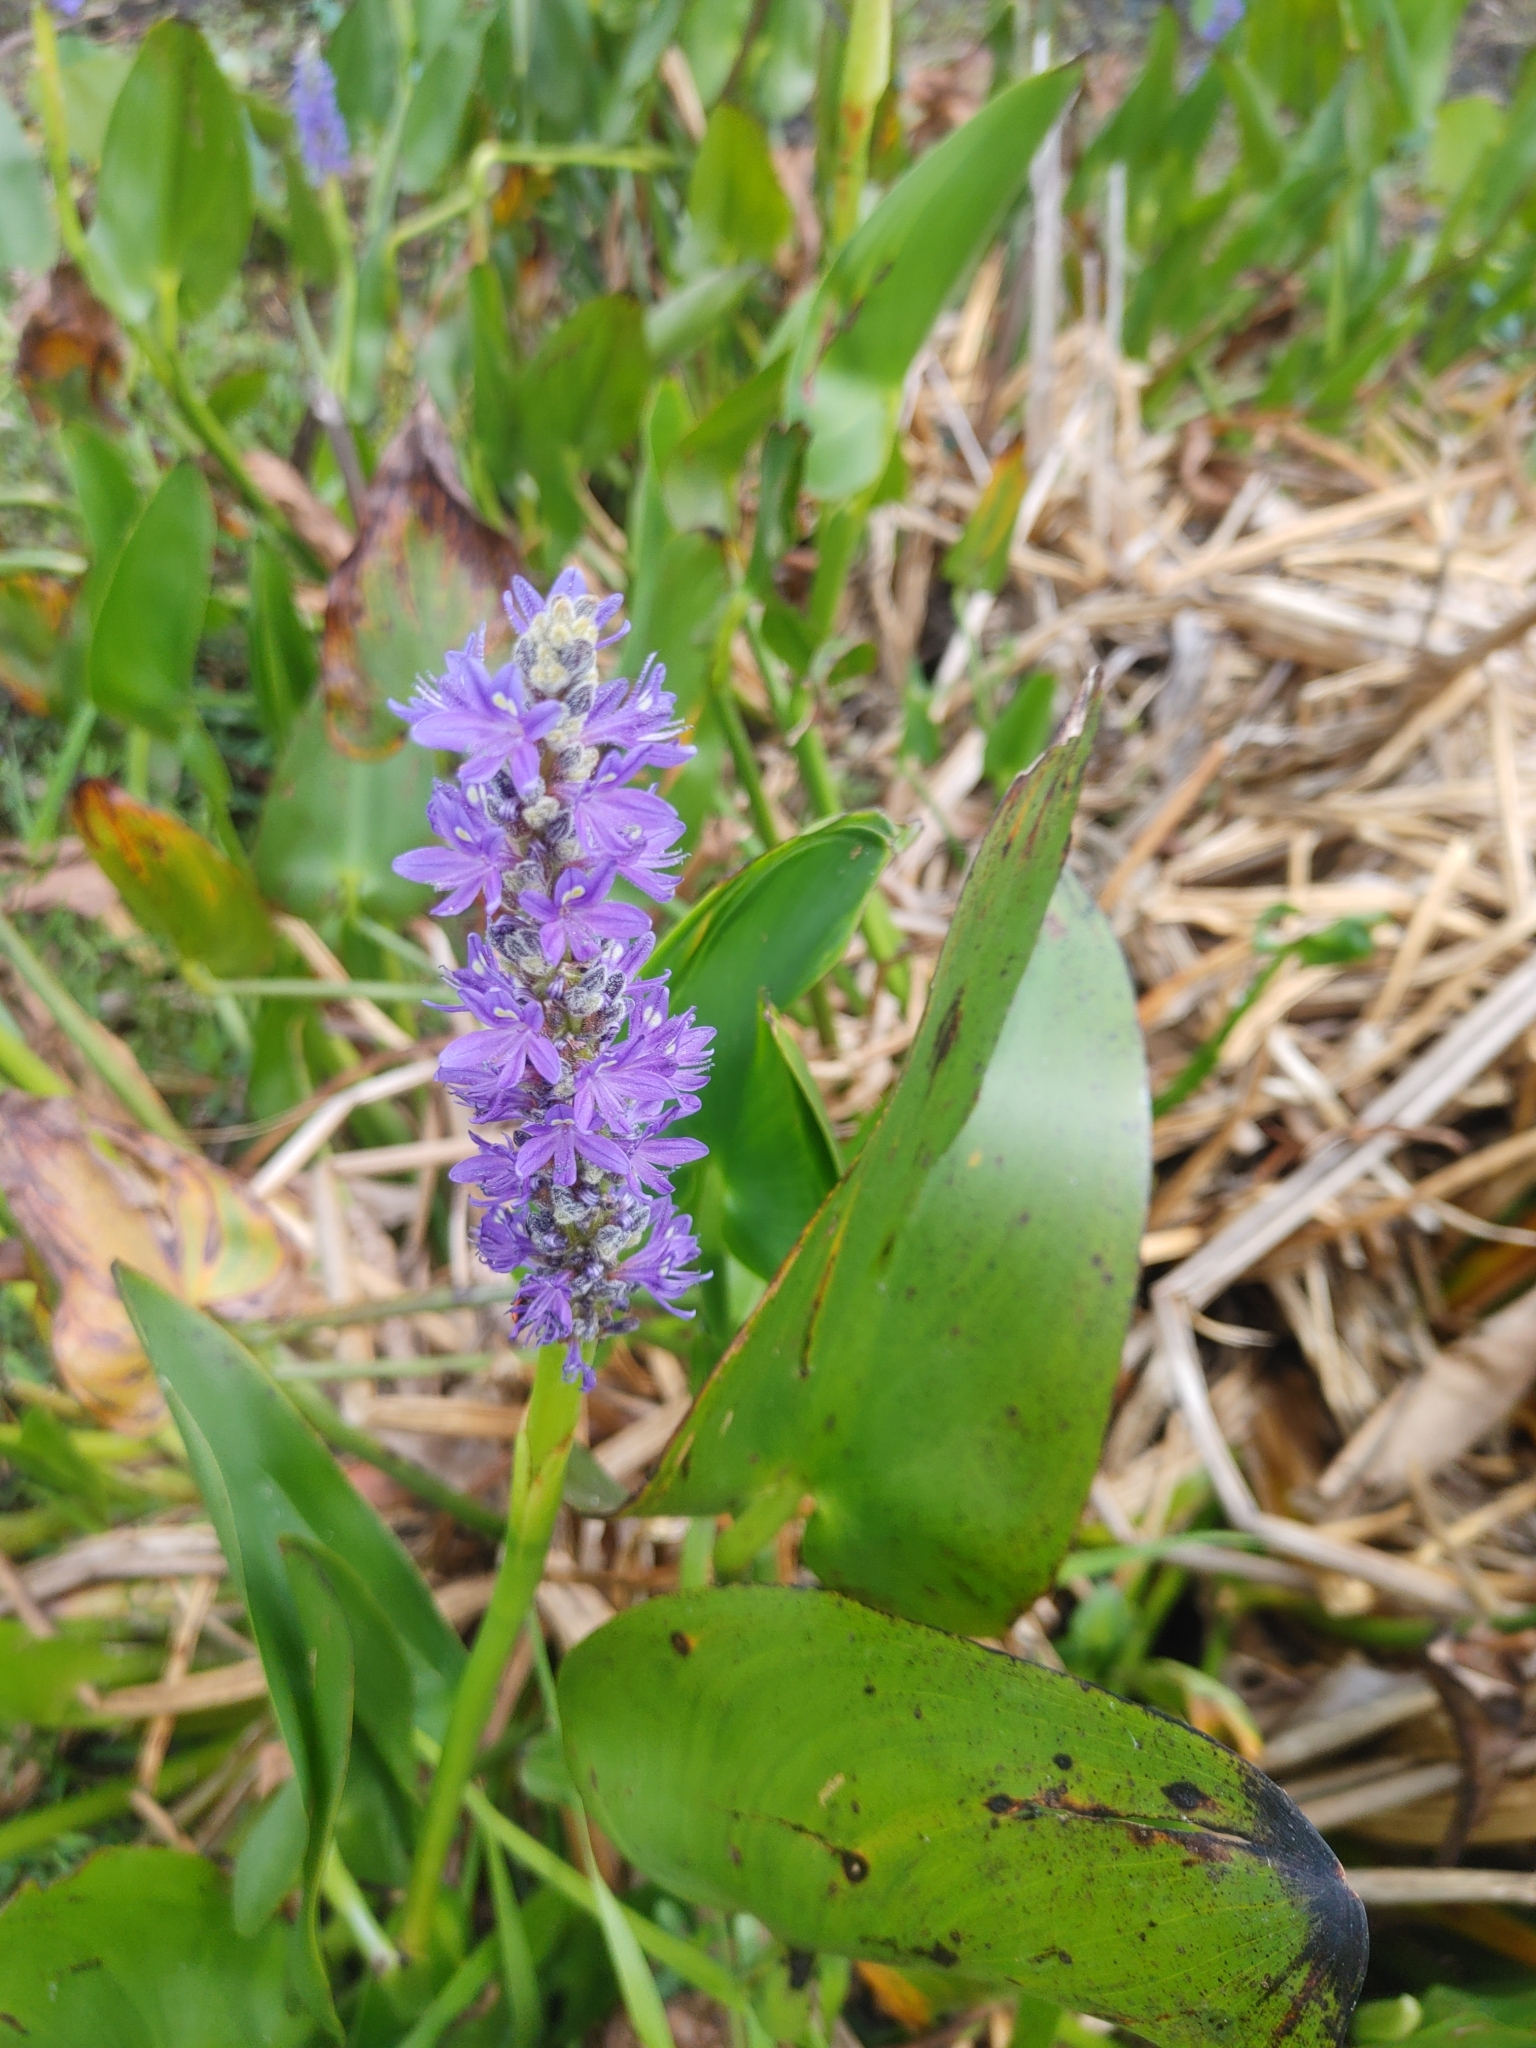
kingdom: Plantae
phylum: Tracheophyta
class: Liliopsida
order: Commelinales
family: Pontederiaceae
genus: Pontederia
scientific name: Pontederia cordata
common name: Pickerelweed
